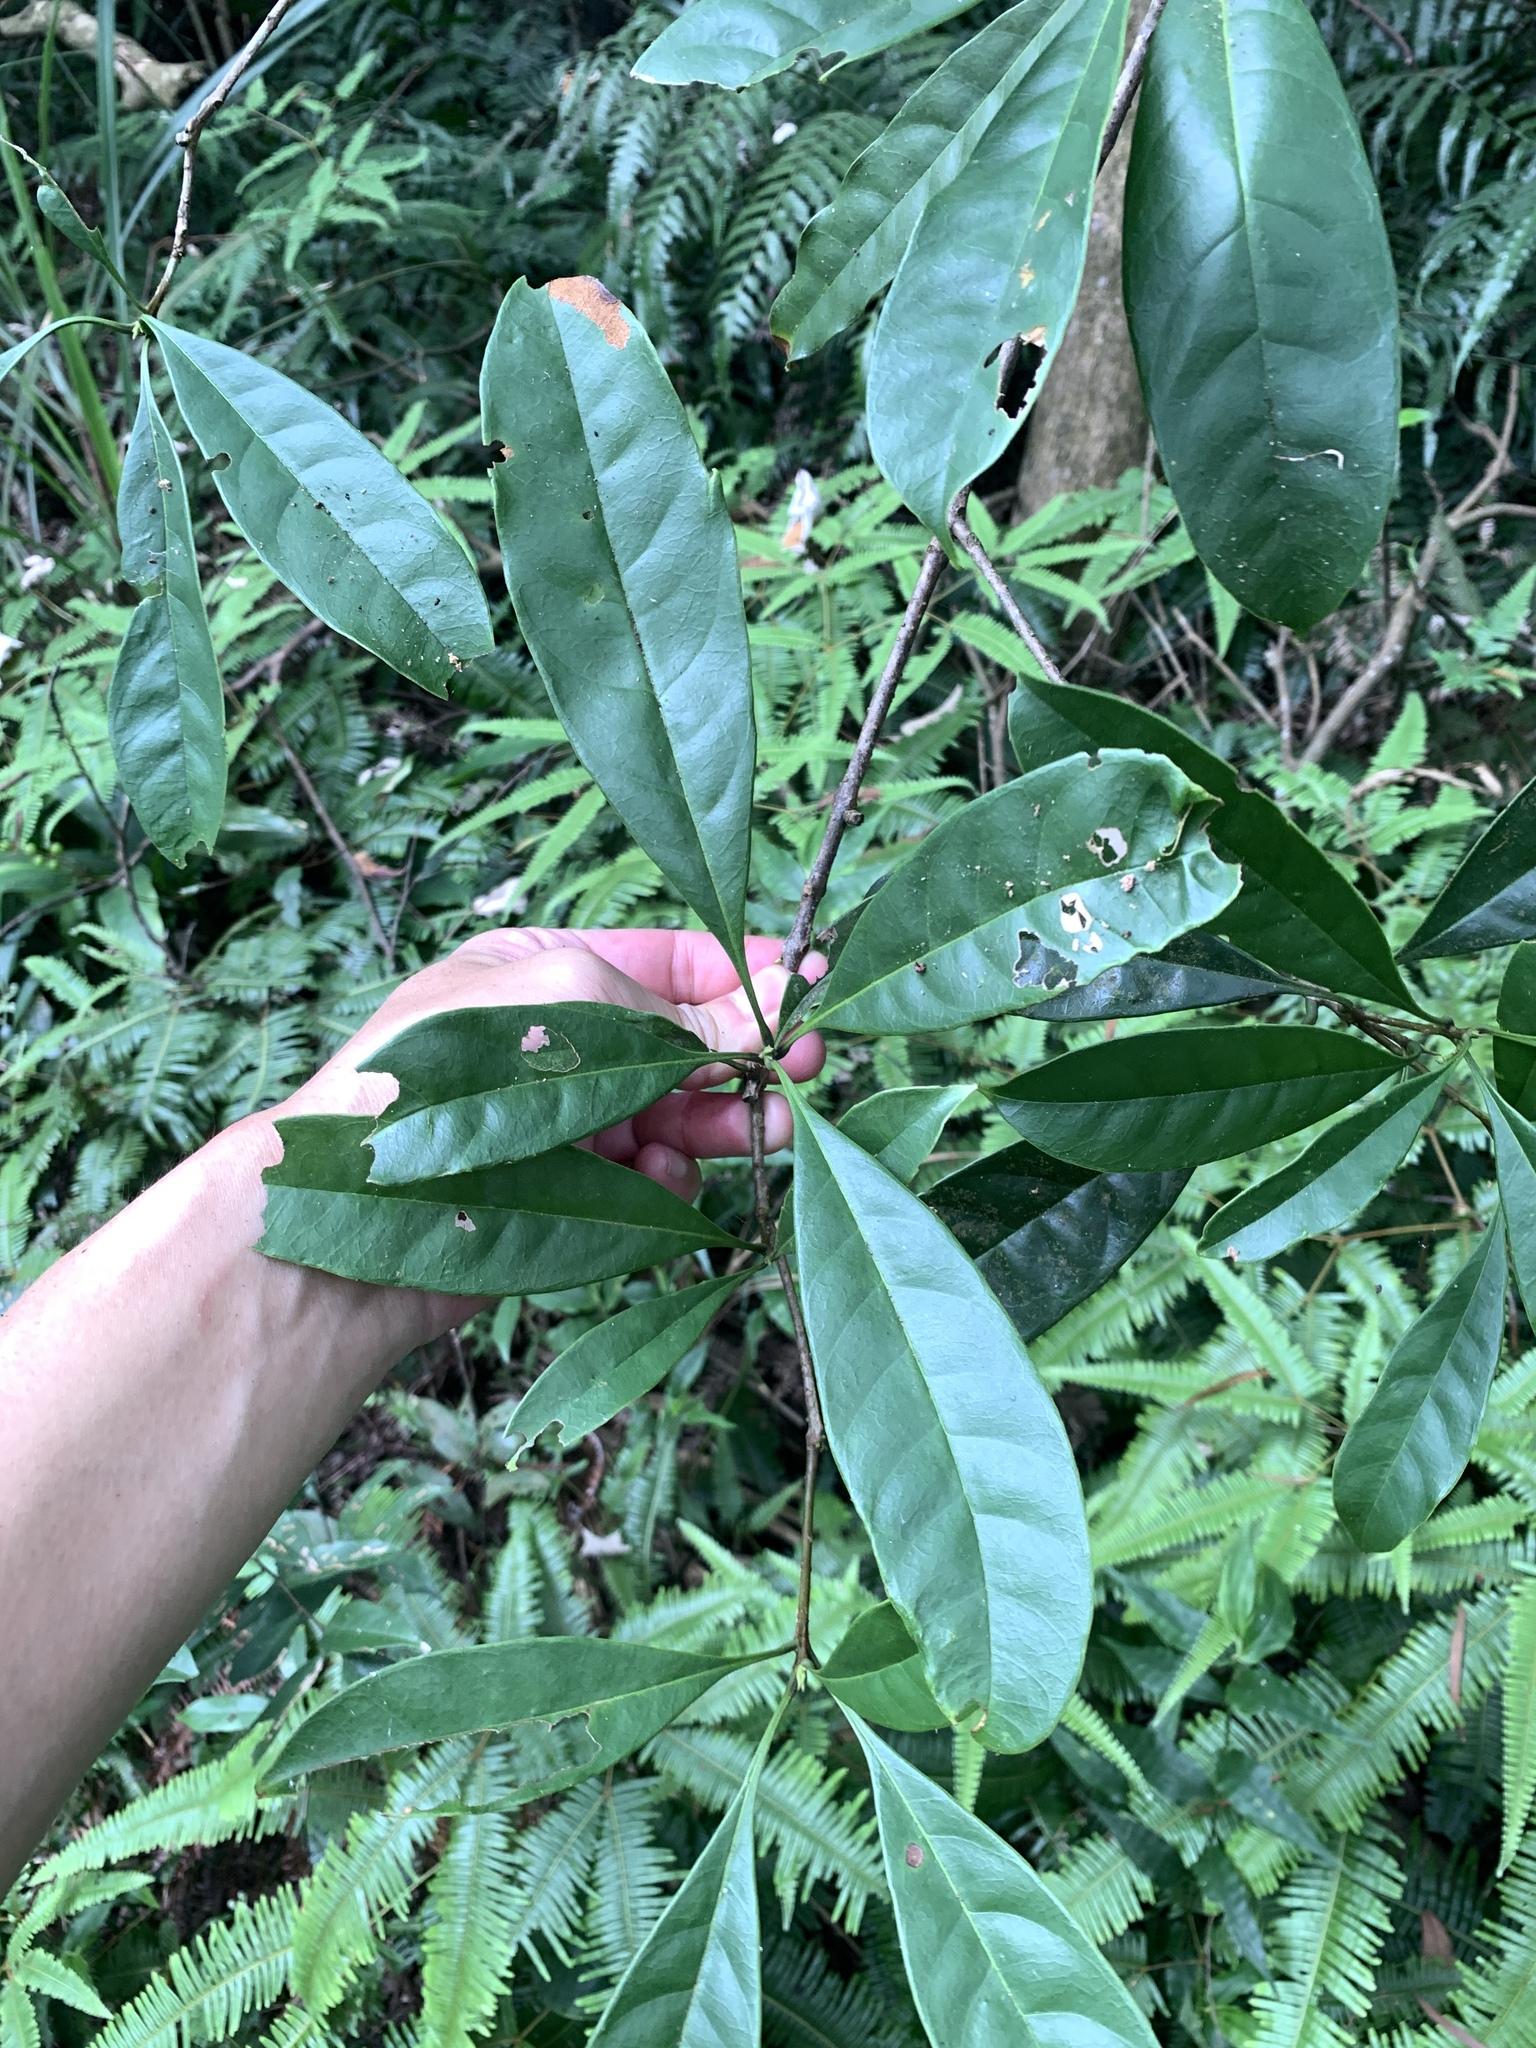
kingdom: Plantae
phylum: Tracheophyta
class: Magnoliopsida
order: Lamiales
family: Oleaceae
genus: Chengiodendron
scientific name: Chengiodendron matsumuranum
